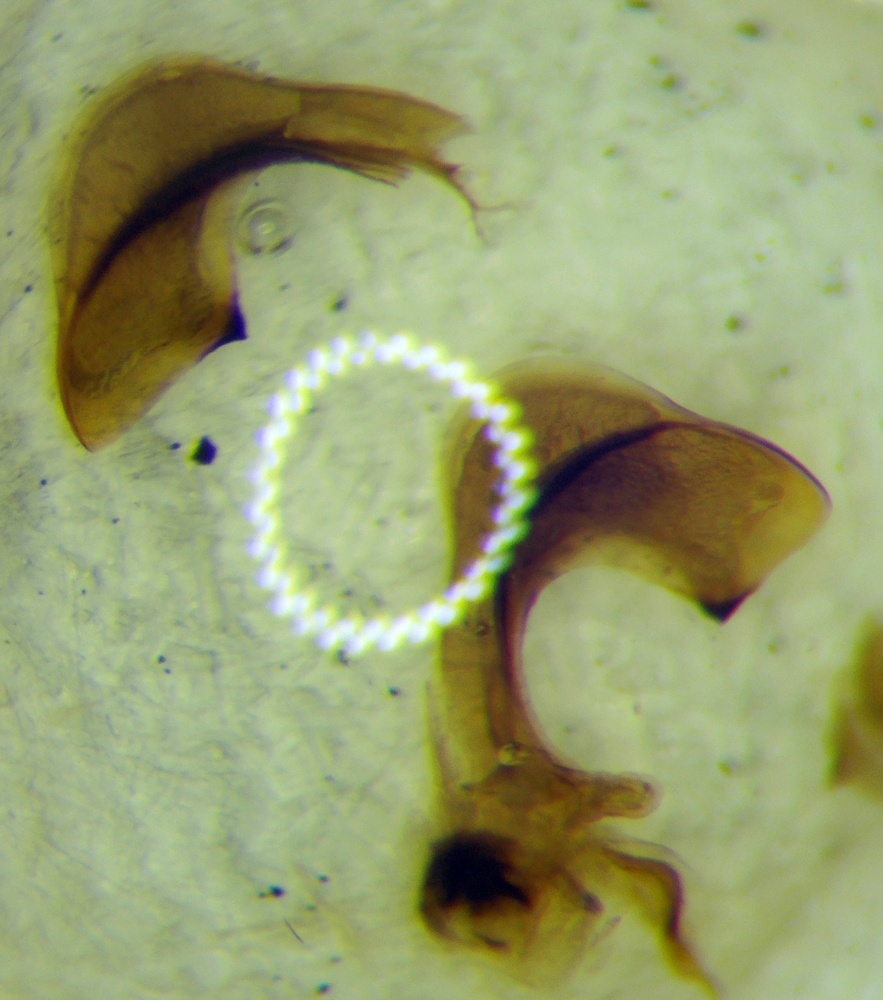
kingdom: Animalia
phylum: Arthropoda
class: Insecta
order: Hemiptera
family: Pentatomidae
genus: Carpocoris
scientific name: Carpocoris purpureipennis
